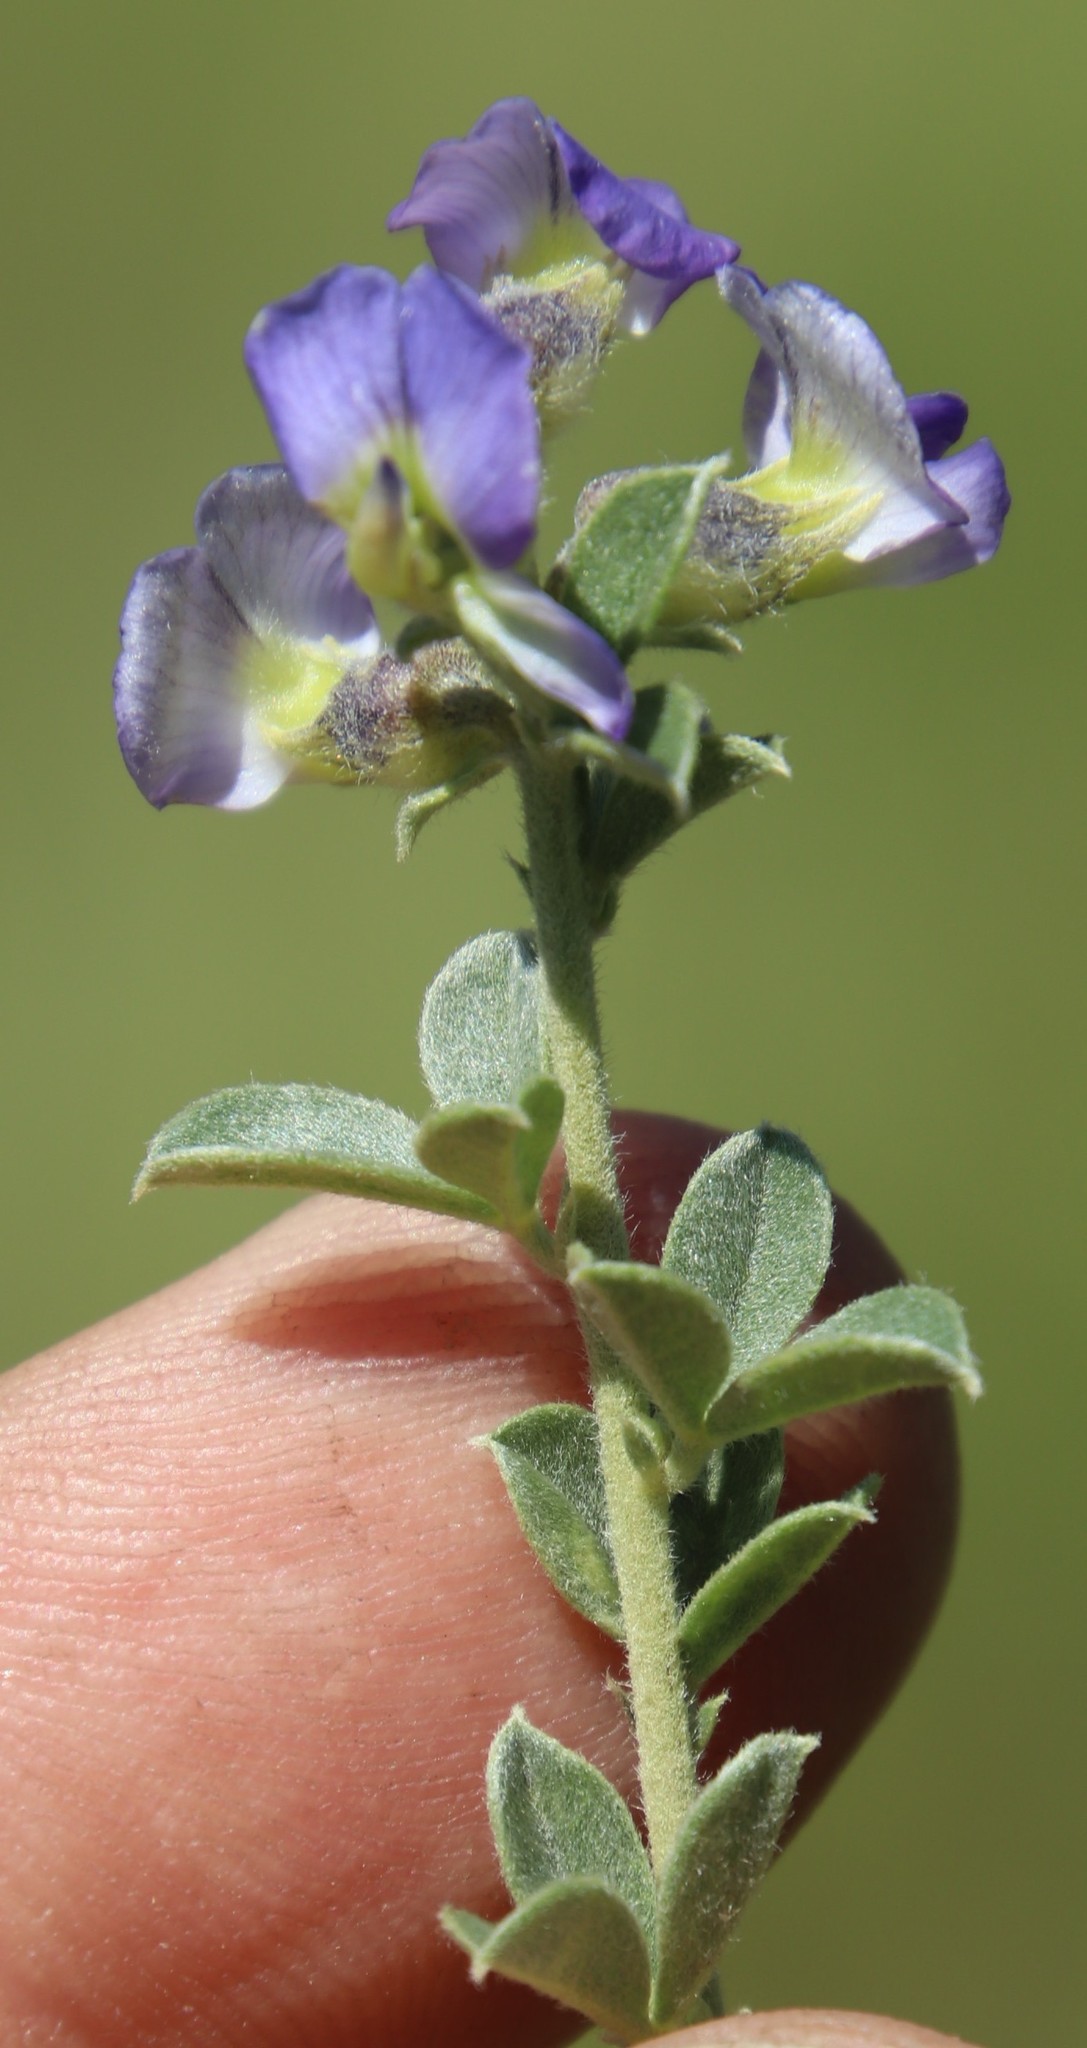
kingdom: Plantae
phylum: Tracheophyta
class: Magnoliopsida
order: Fabales
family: Fabaceae
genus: Lotononis
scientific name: Lotononis lotononoides
